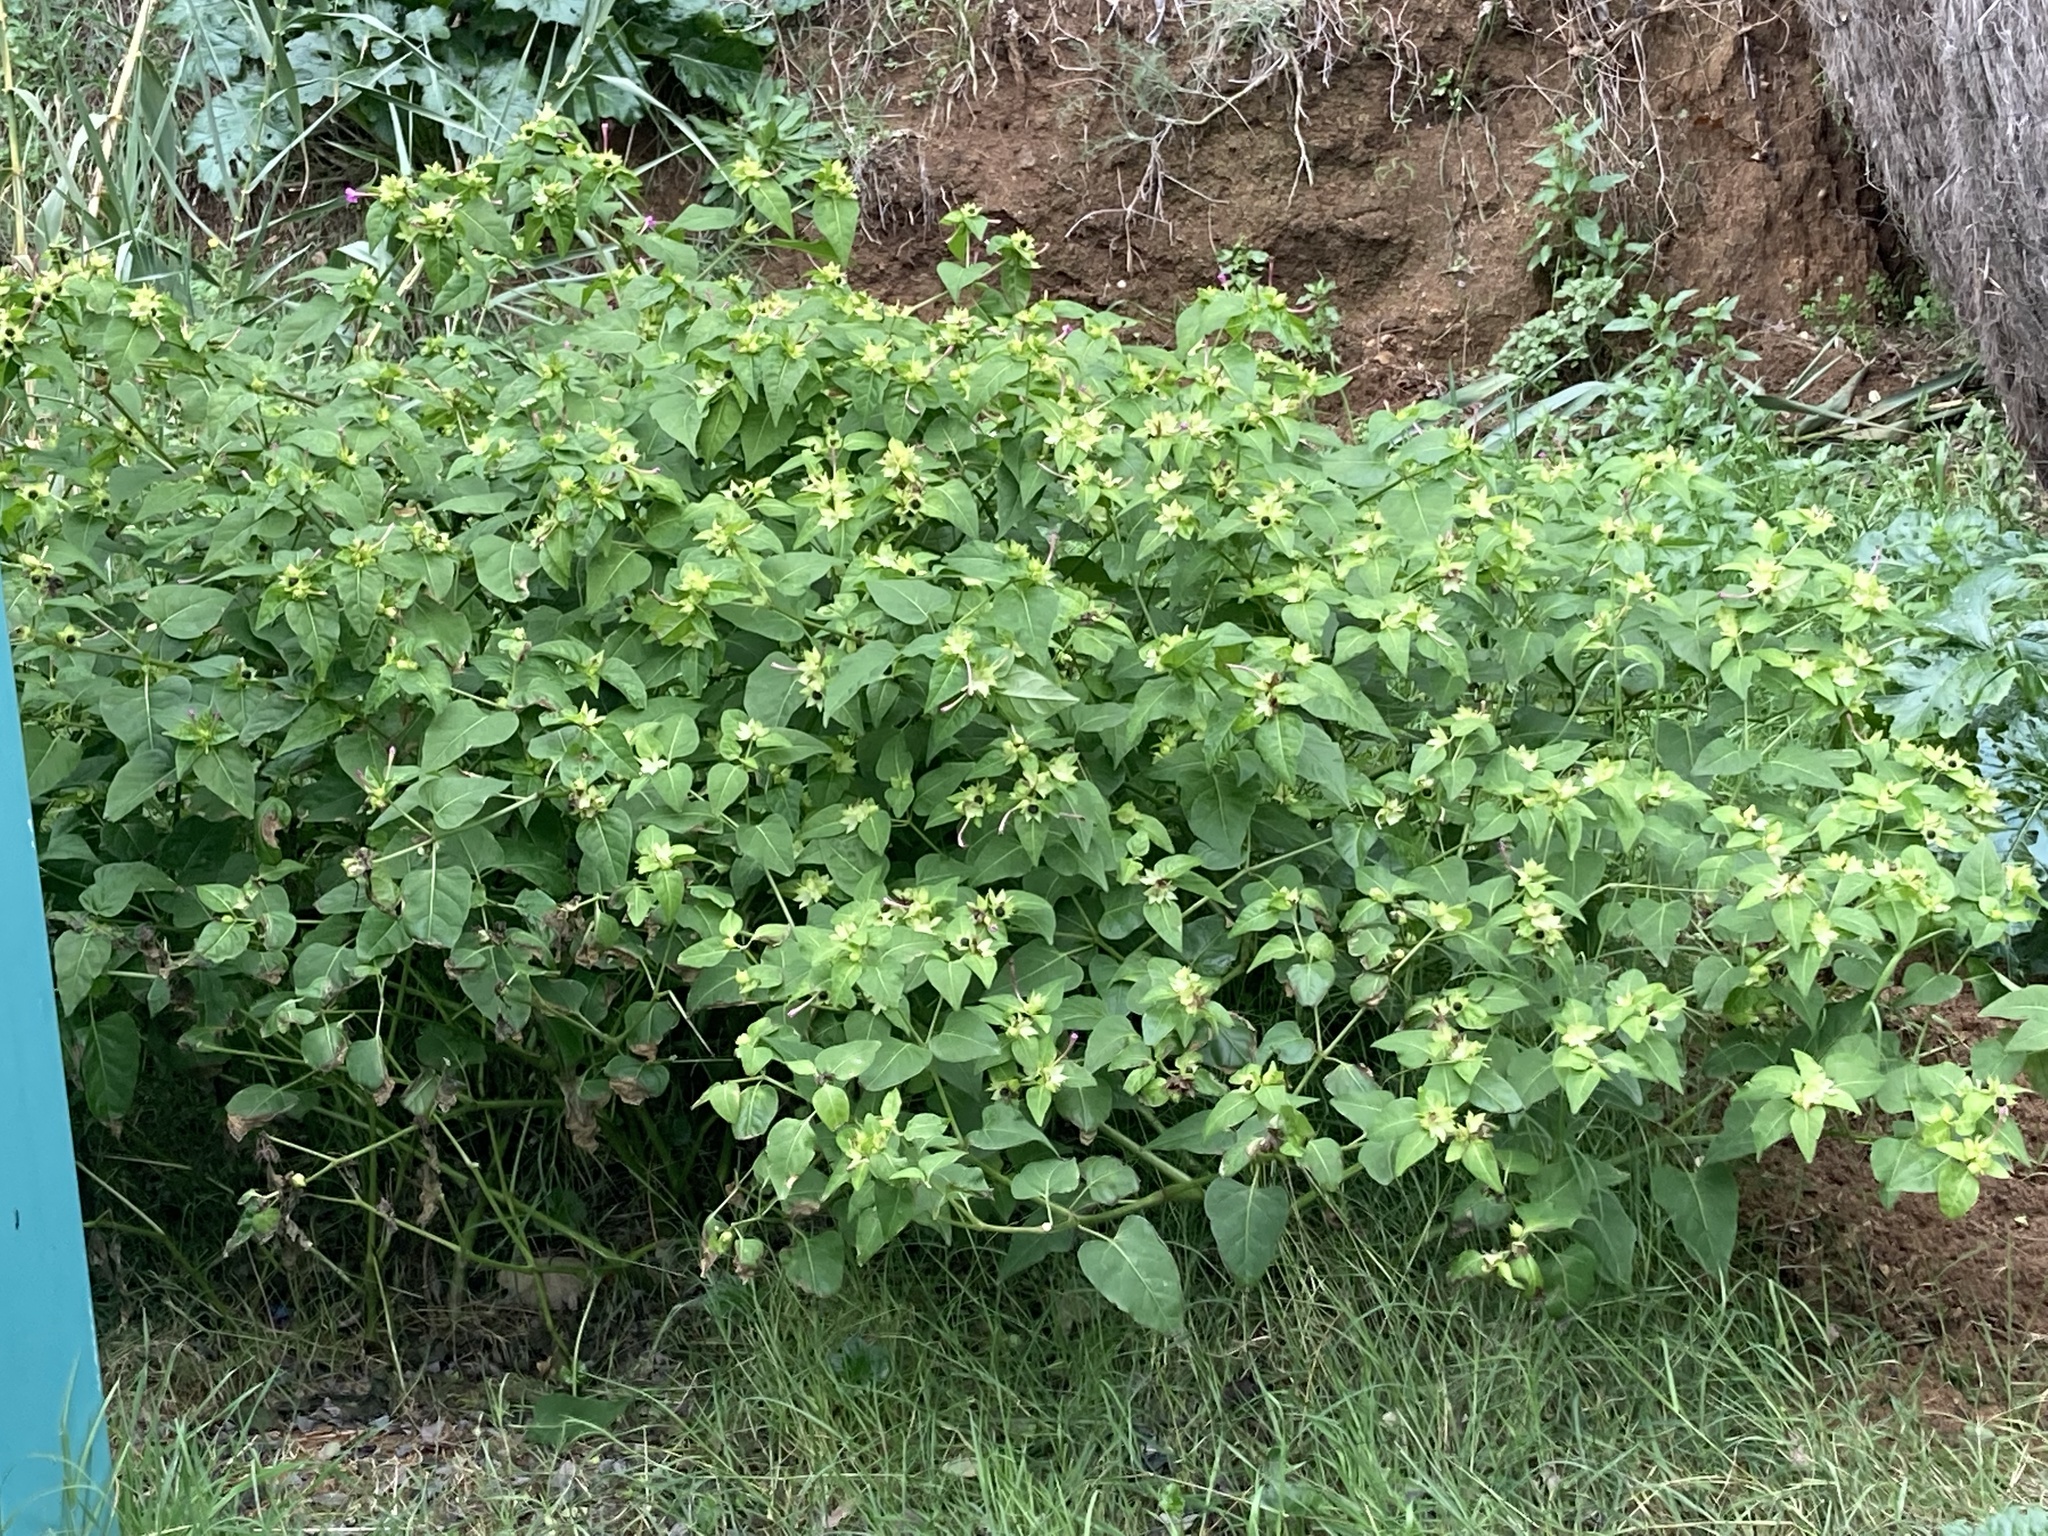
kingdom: Plantae
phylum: Tracheophyta
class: Magnoliopsida
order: Caryophyllales
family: Nyctaginaceae
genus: Mirabilis
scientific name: Mirabilis jalapa
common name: Marvel-of-peru
